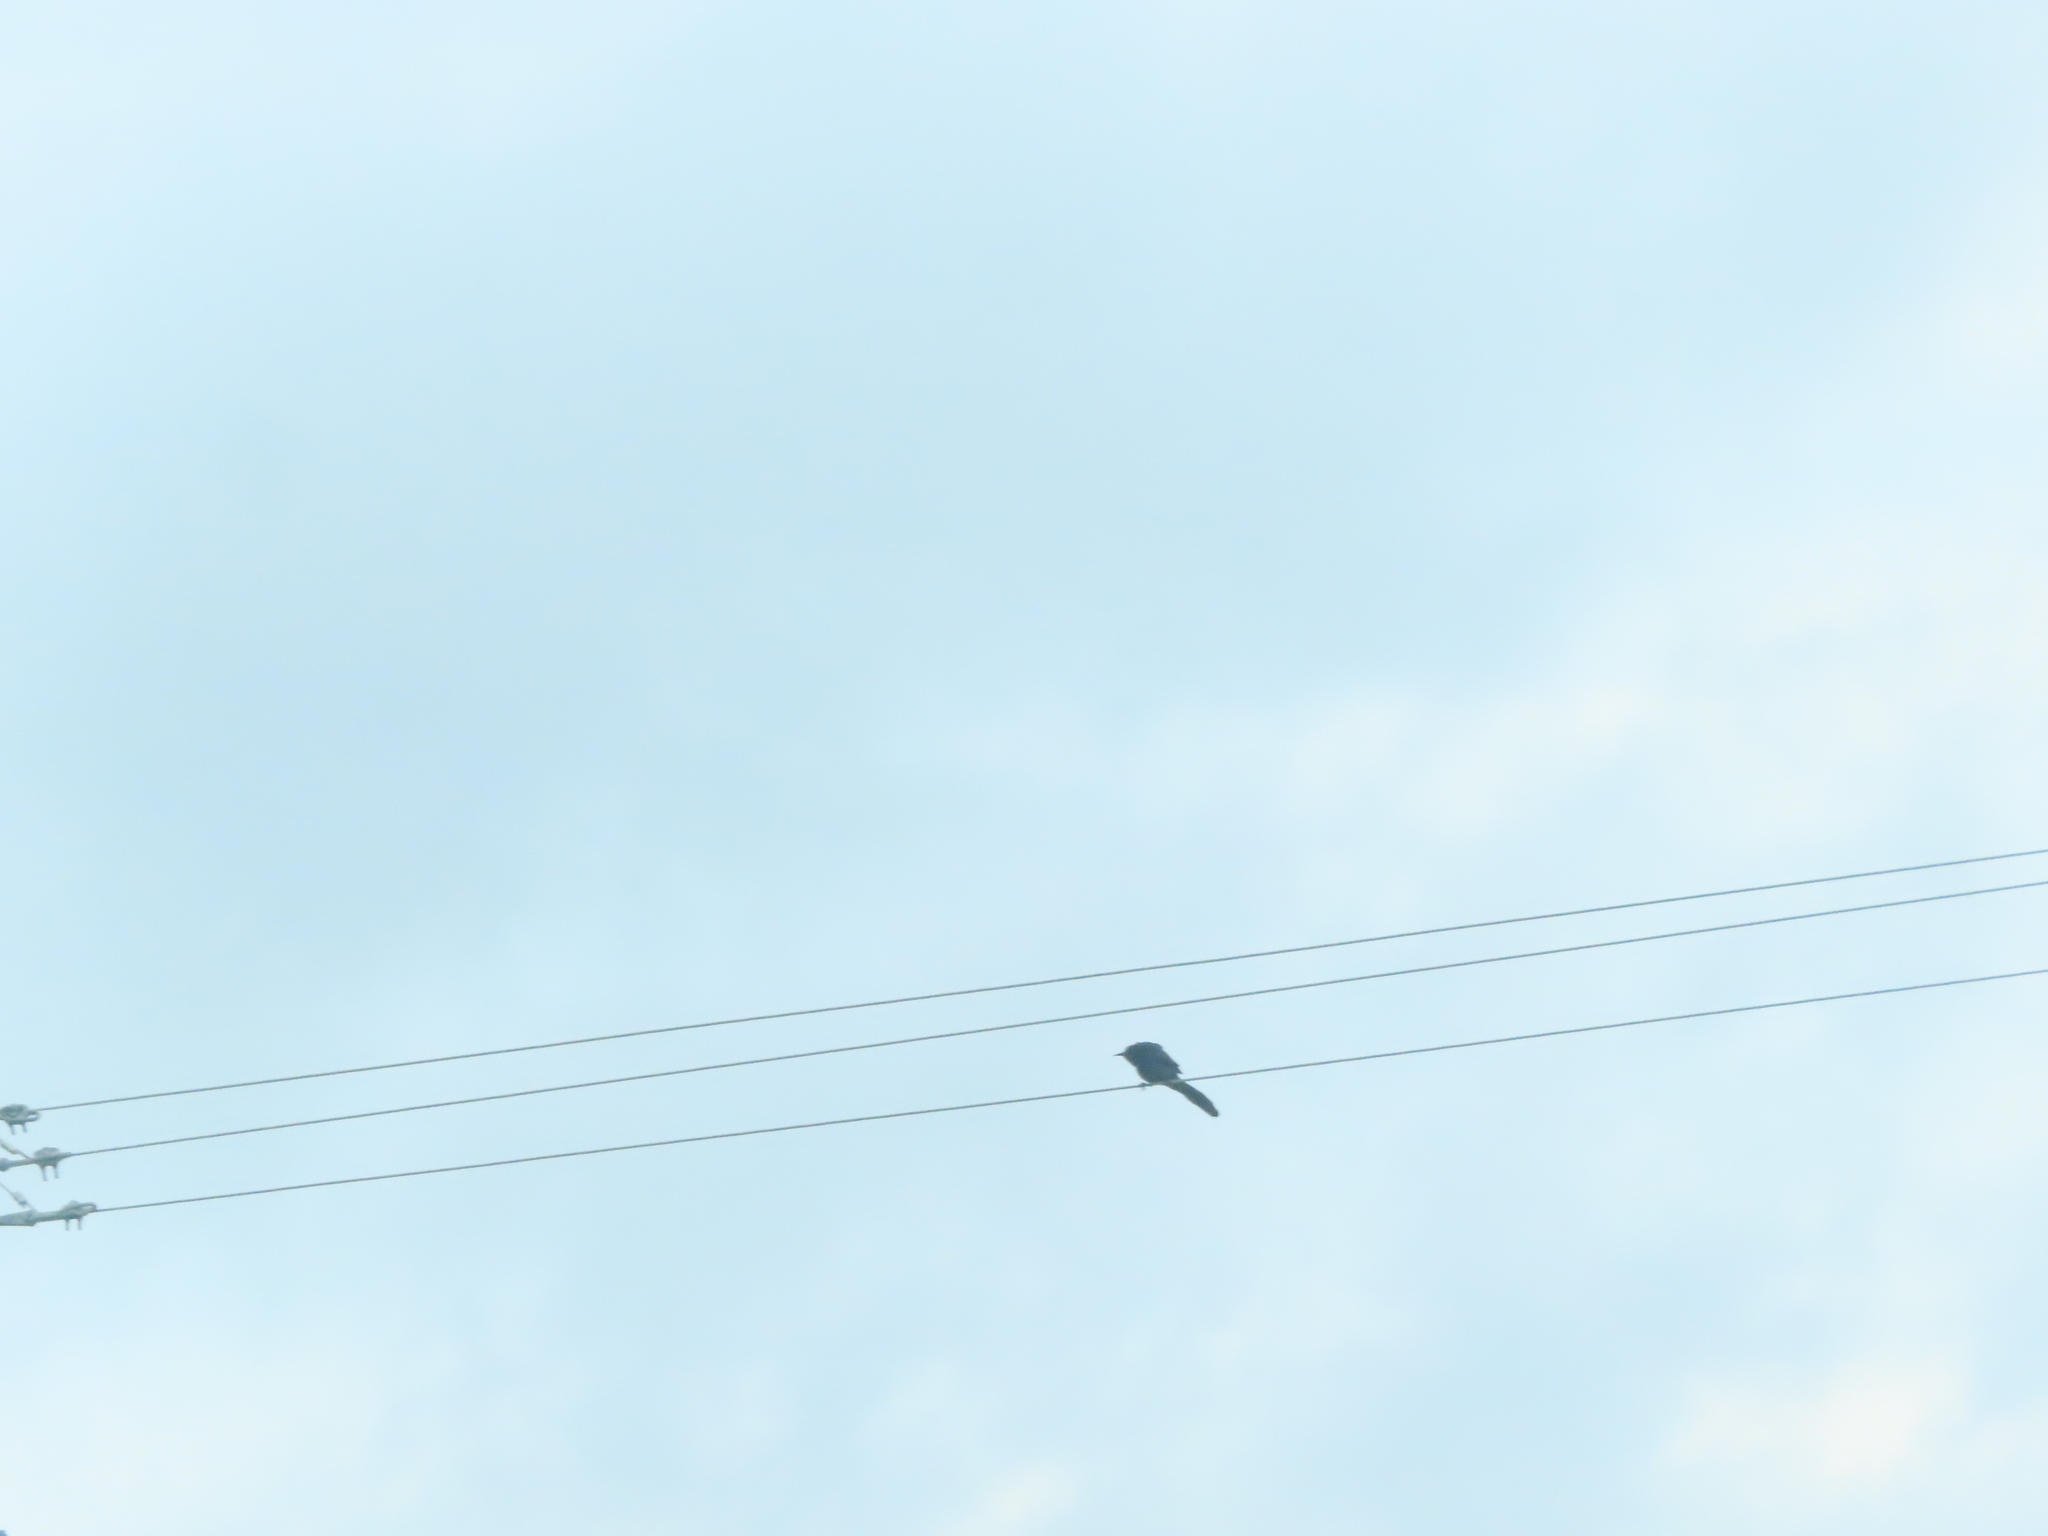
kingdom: Animalia
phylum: Chordata
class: Aves
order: Passeriformes
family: Icteridae
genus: Quiscalus
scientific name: Quiscalus mexicanus
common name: Great-tailed grackle
